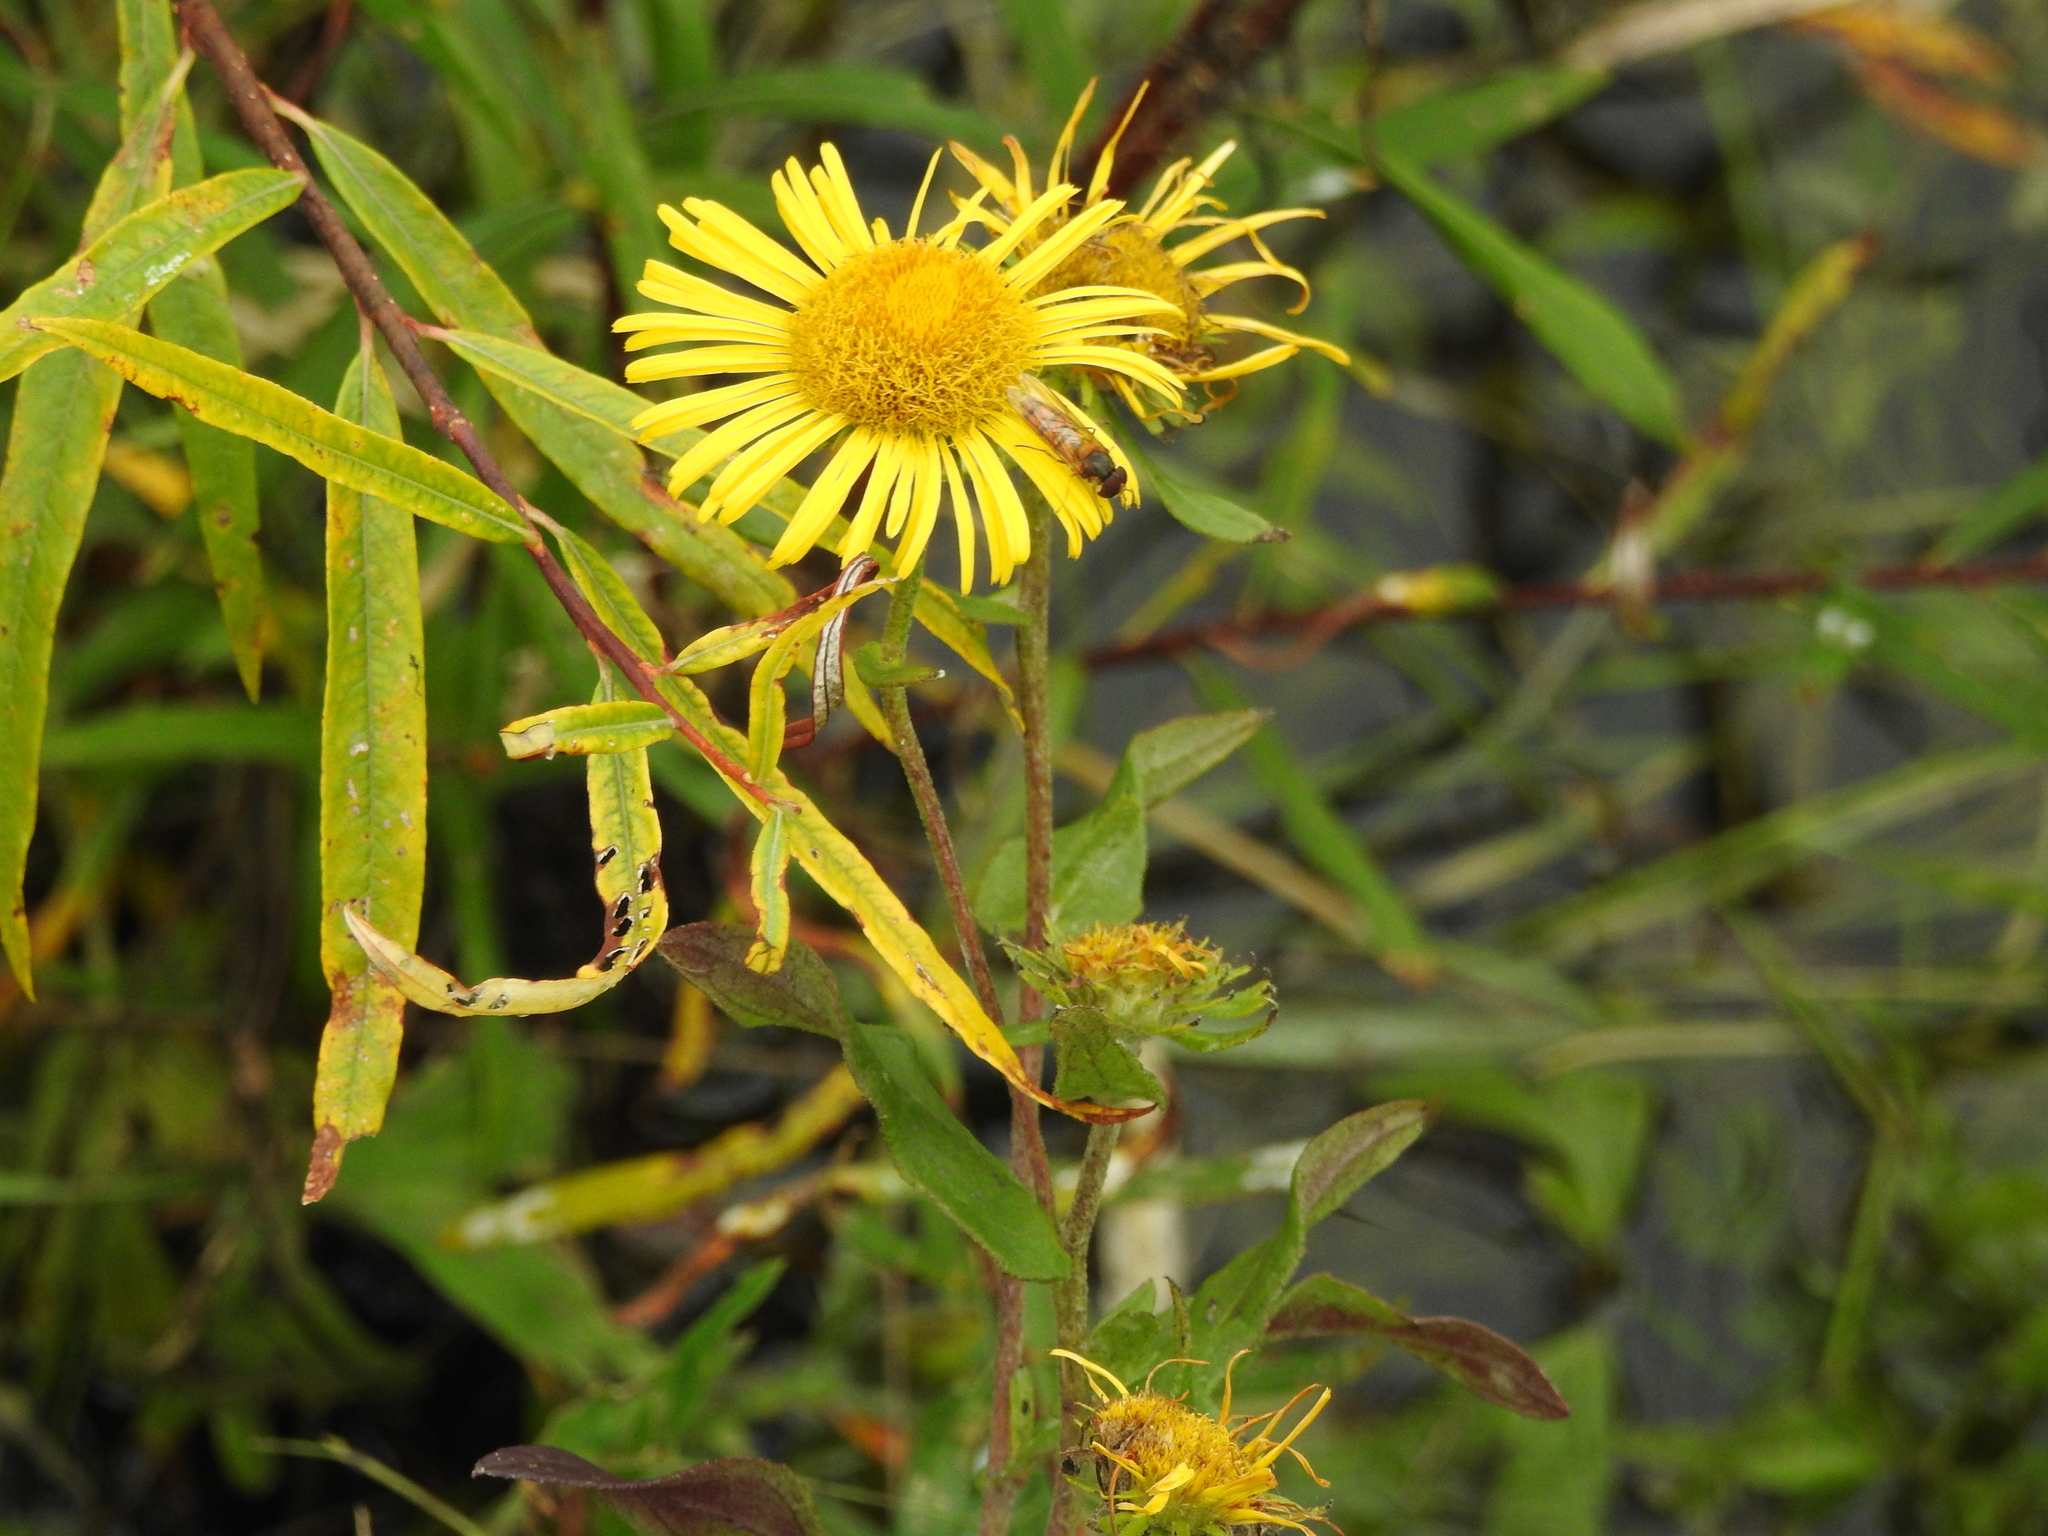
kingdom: Plantae
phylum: Tracheophyta
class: Magnoliopsida
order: Asterales
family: Asteraceae
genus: Pentanema
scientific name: Pentanema salicinum
